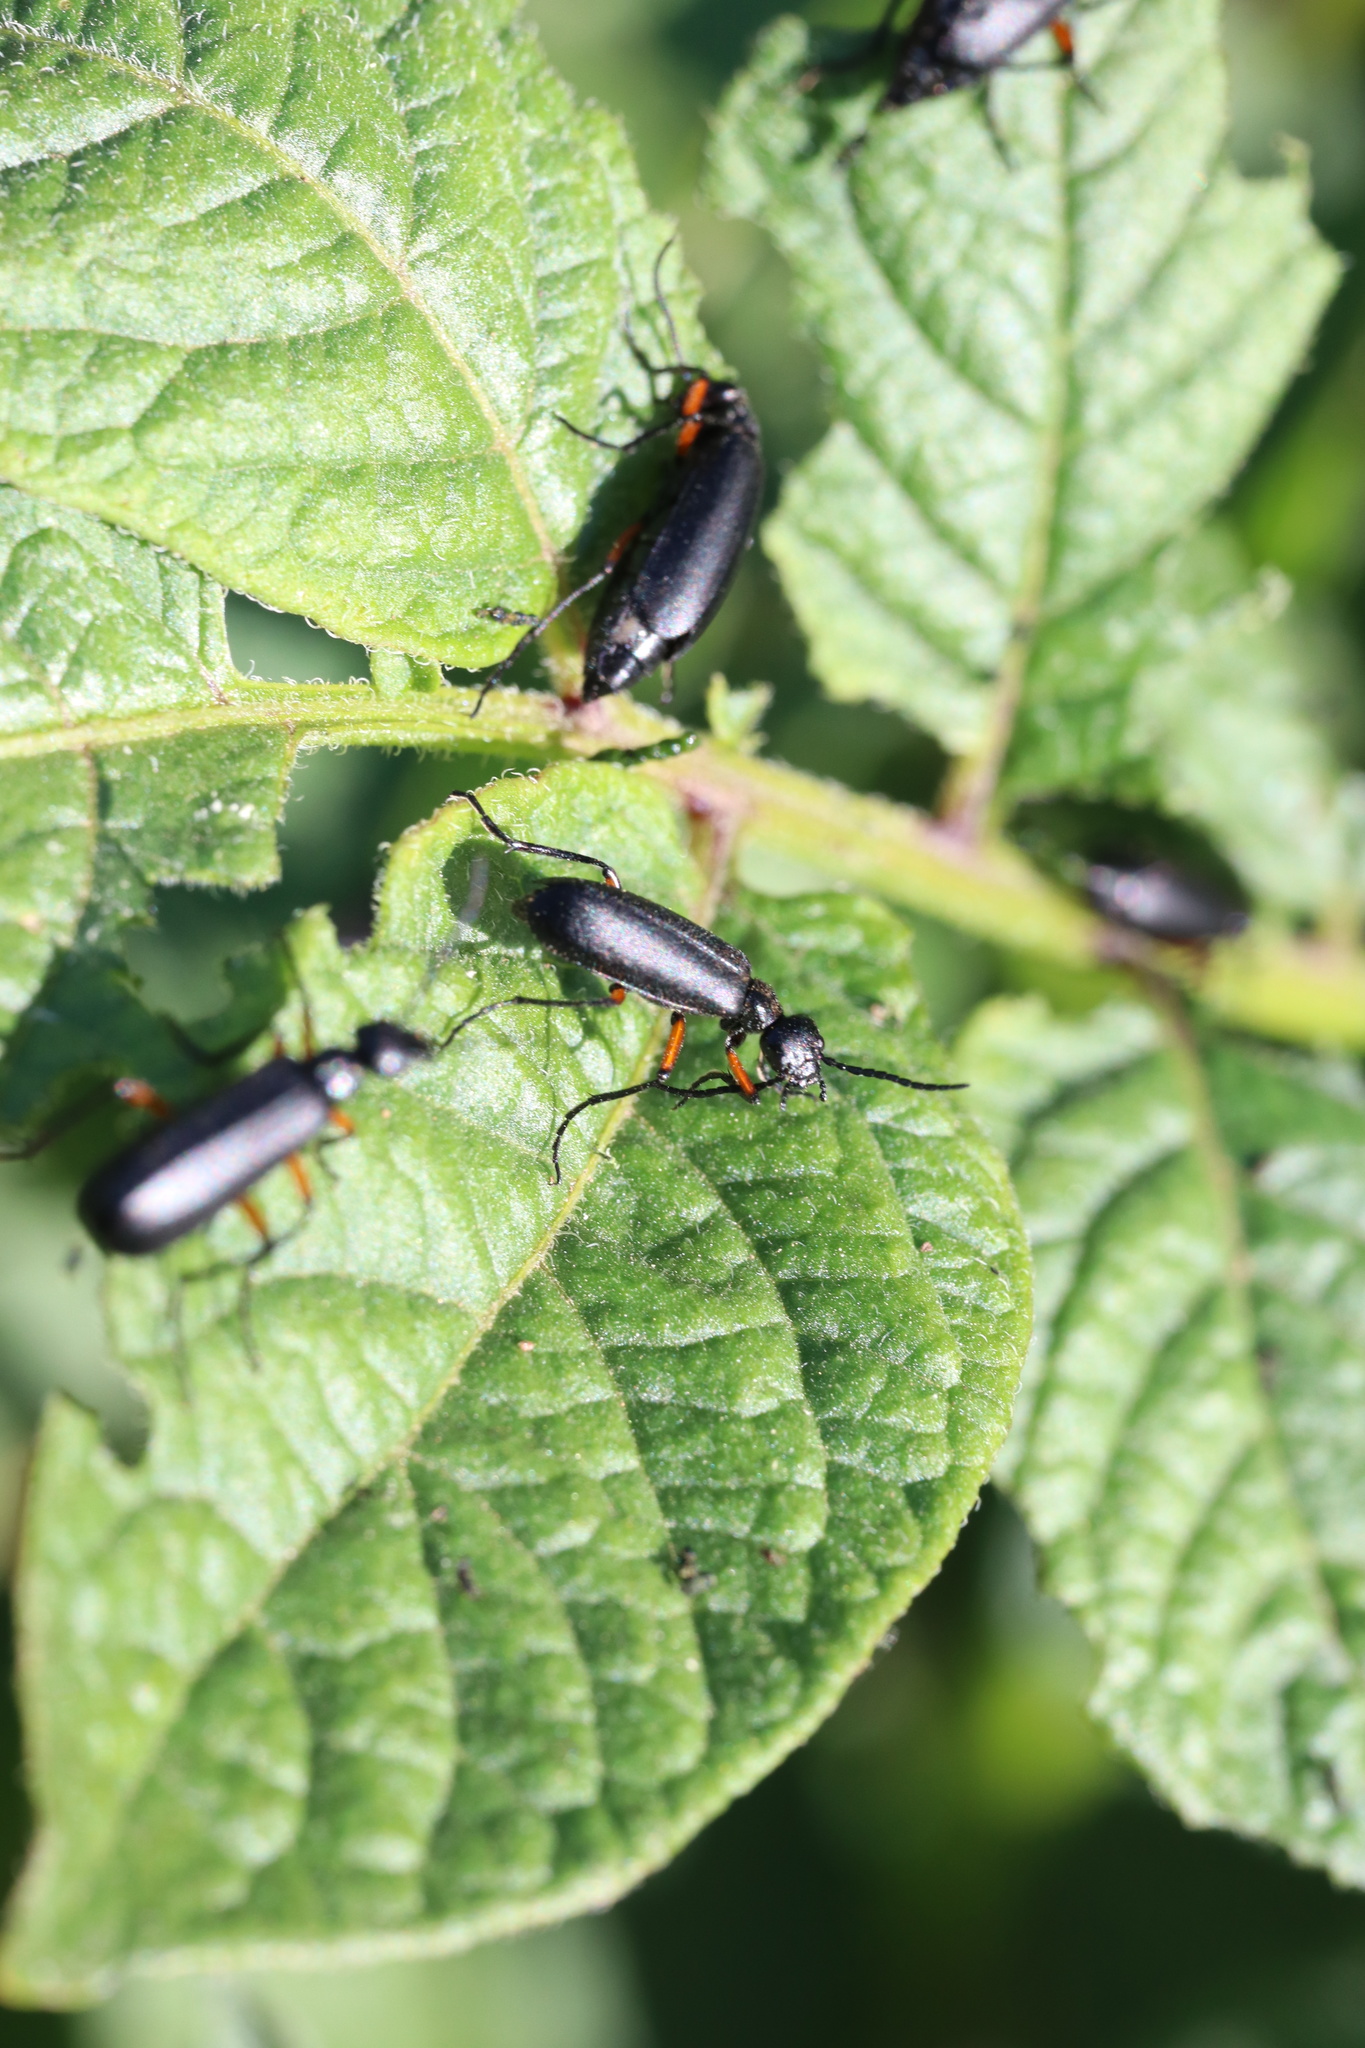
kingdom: Animalia
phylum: Arthropoda
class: Insecta
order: Coleoptera
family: Meloidae
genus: Epicauta
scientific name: Epicauta
